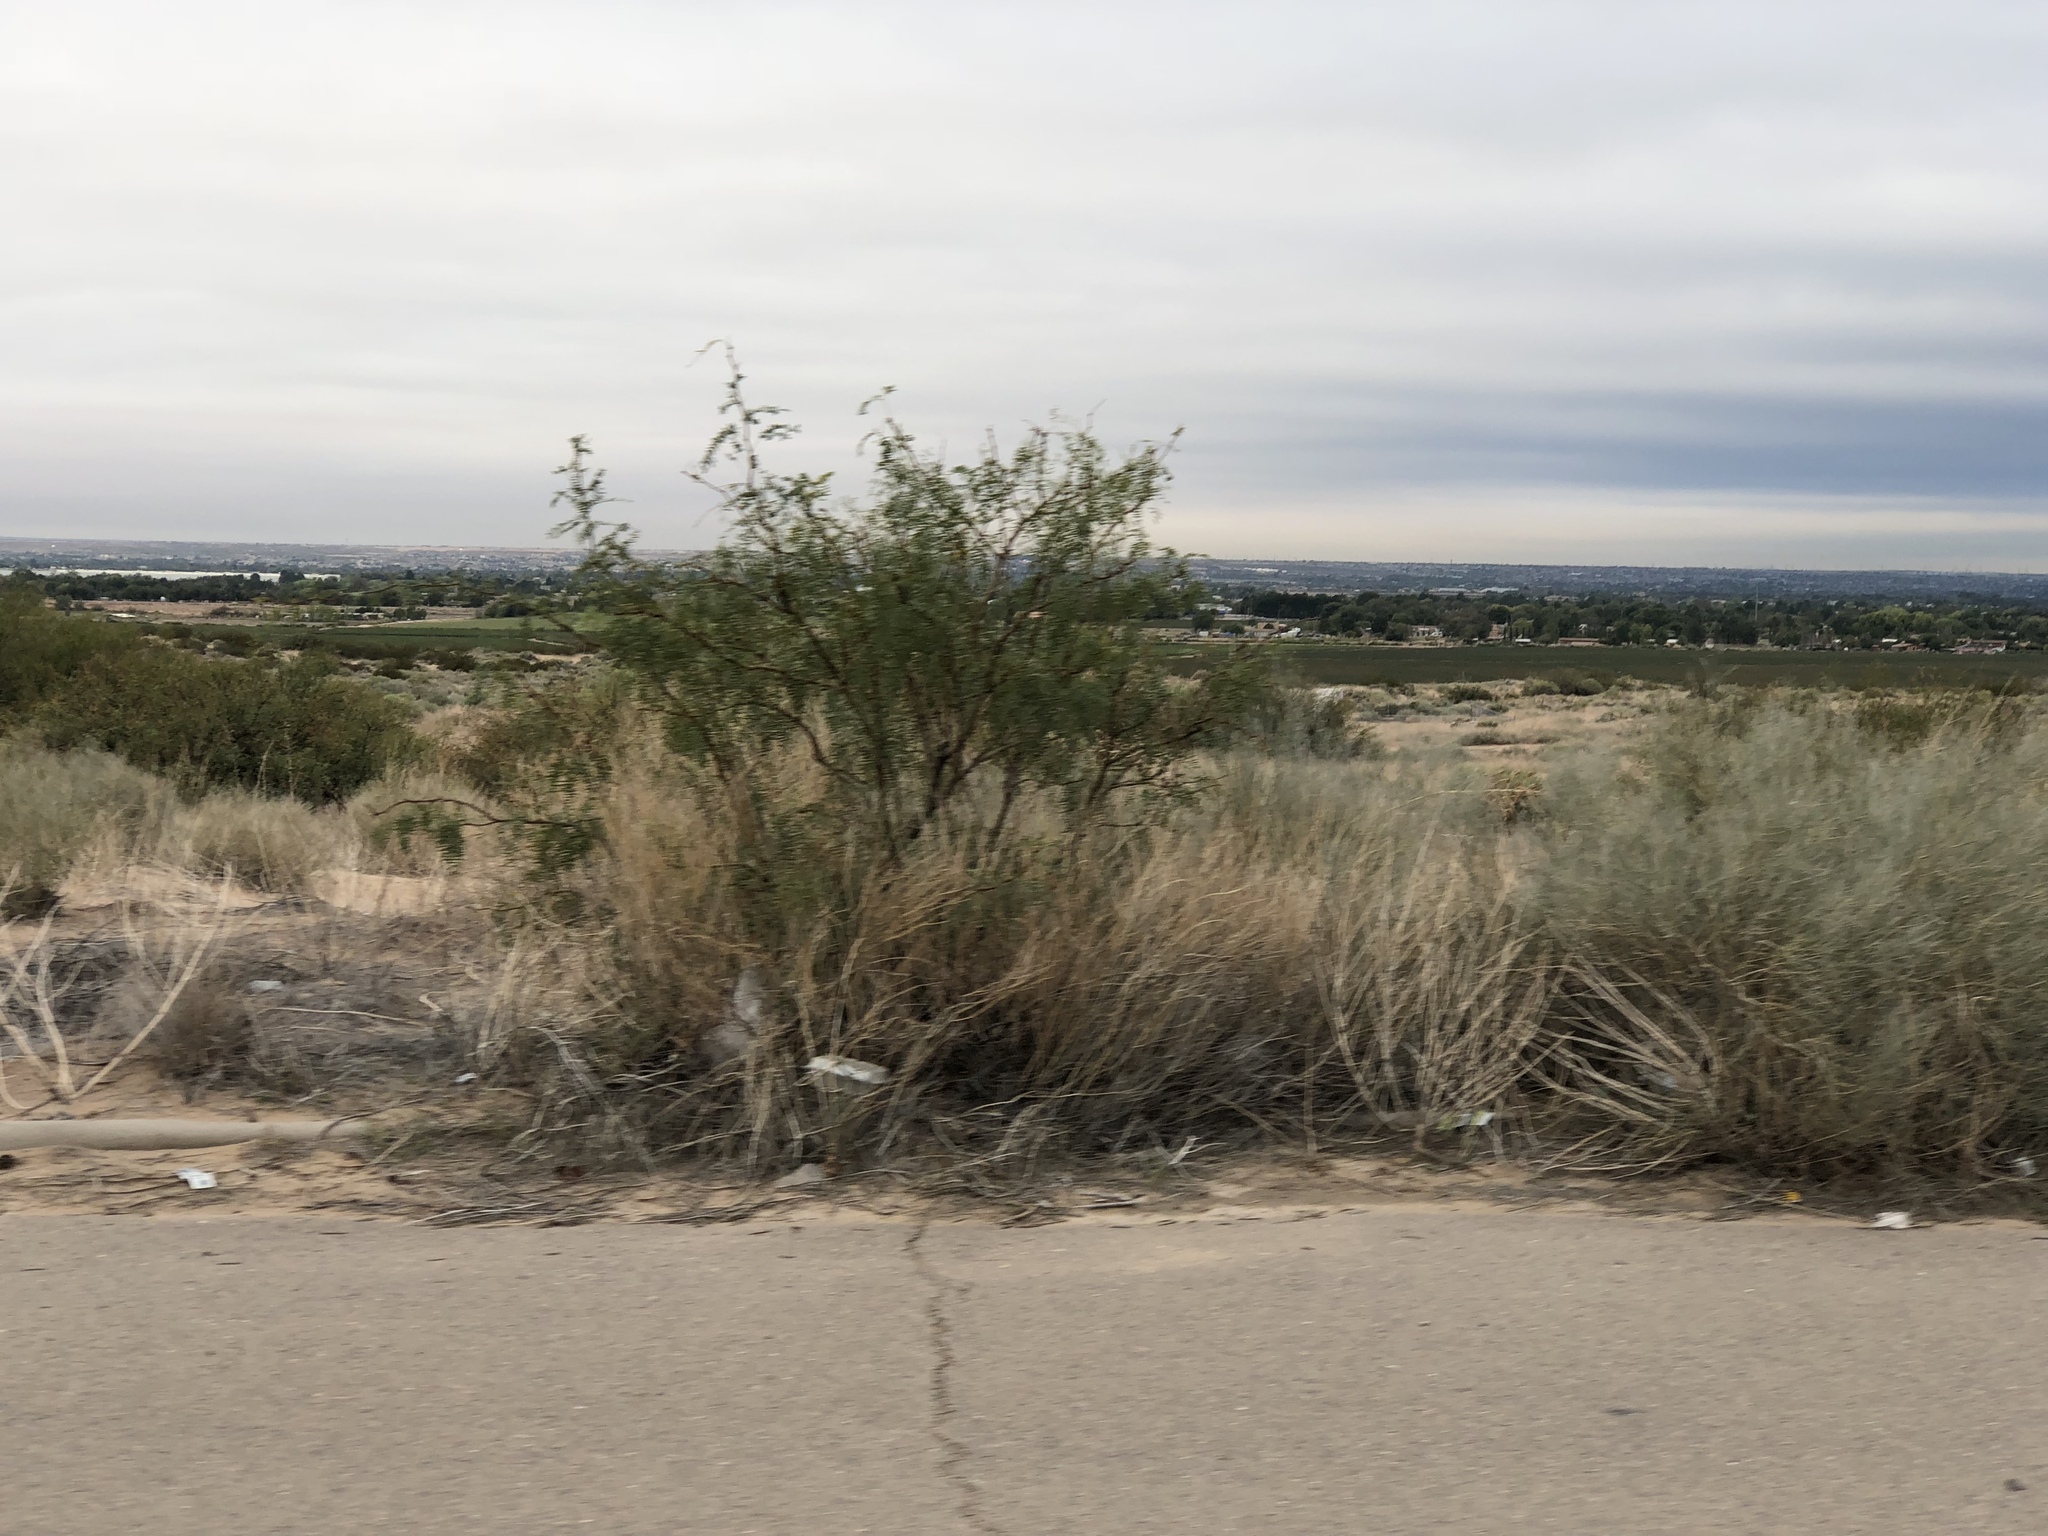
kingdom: Plantae
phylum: Tracheophyta
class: Magnoliopsida
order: Fabales
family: Fabaceae
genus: Prosopis
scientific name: Prosopis glandulosa
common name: Honey mesquite
